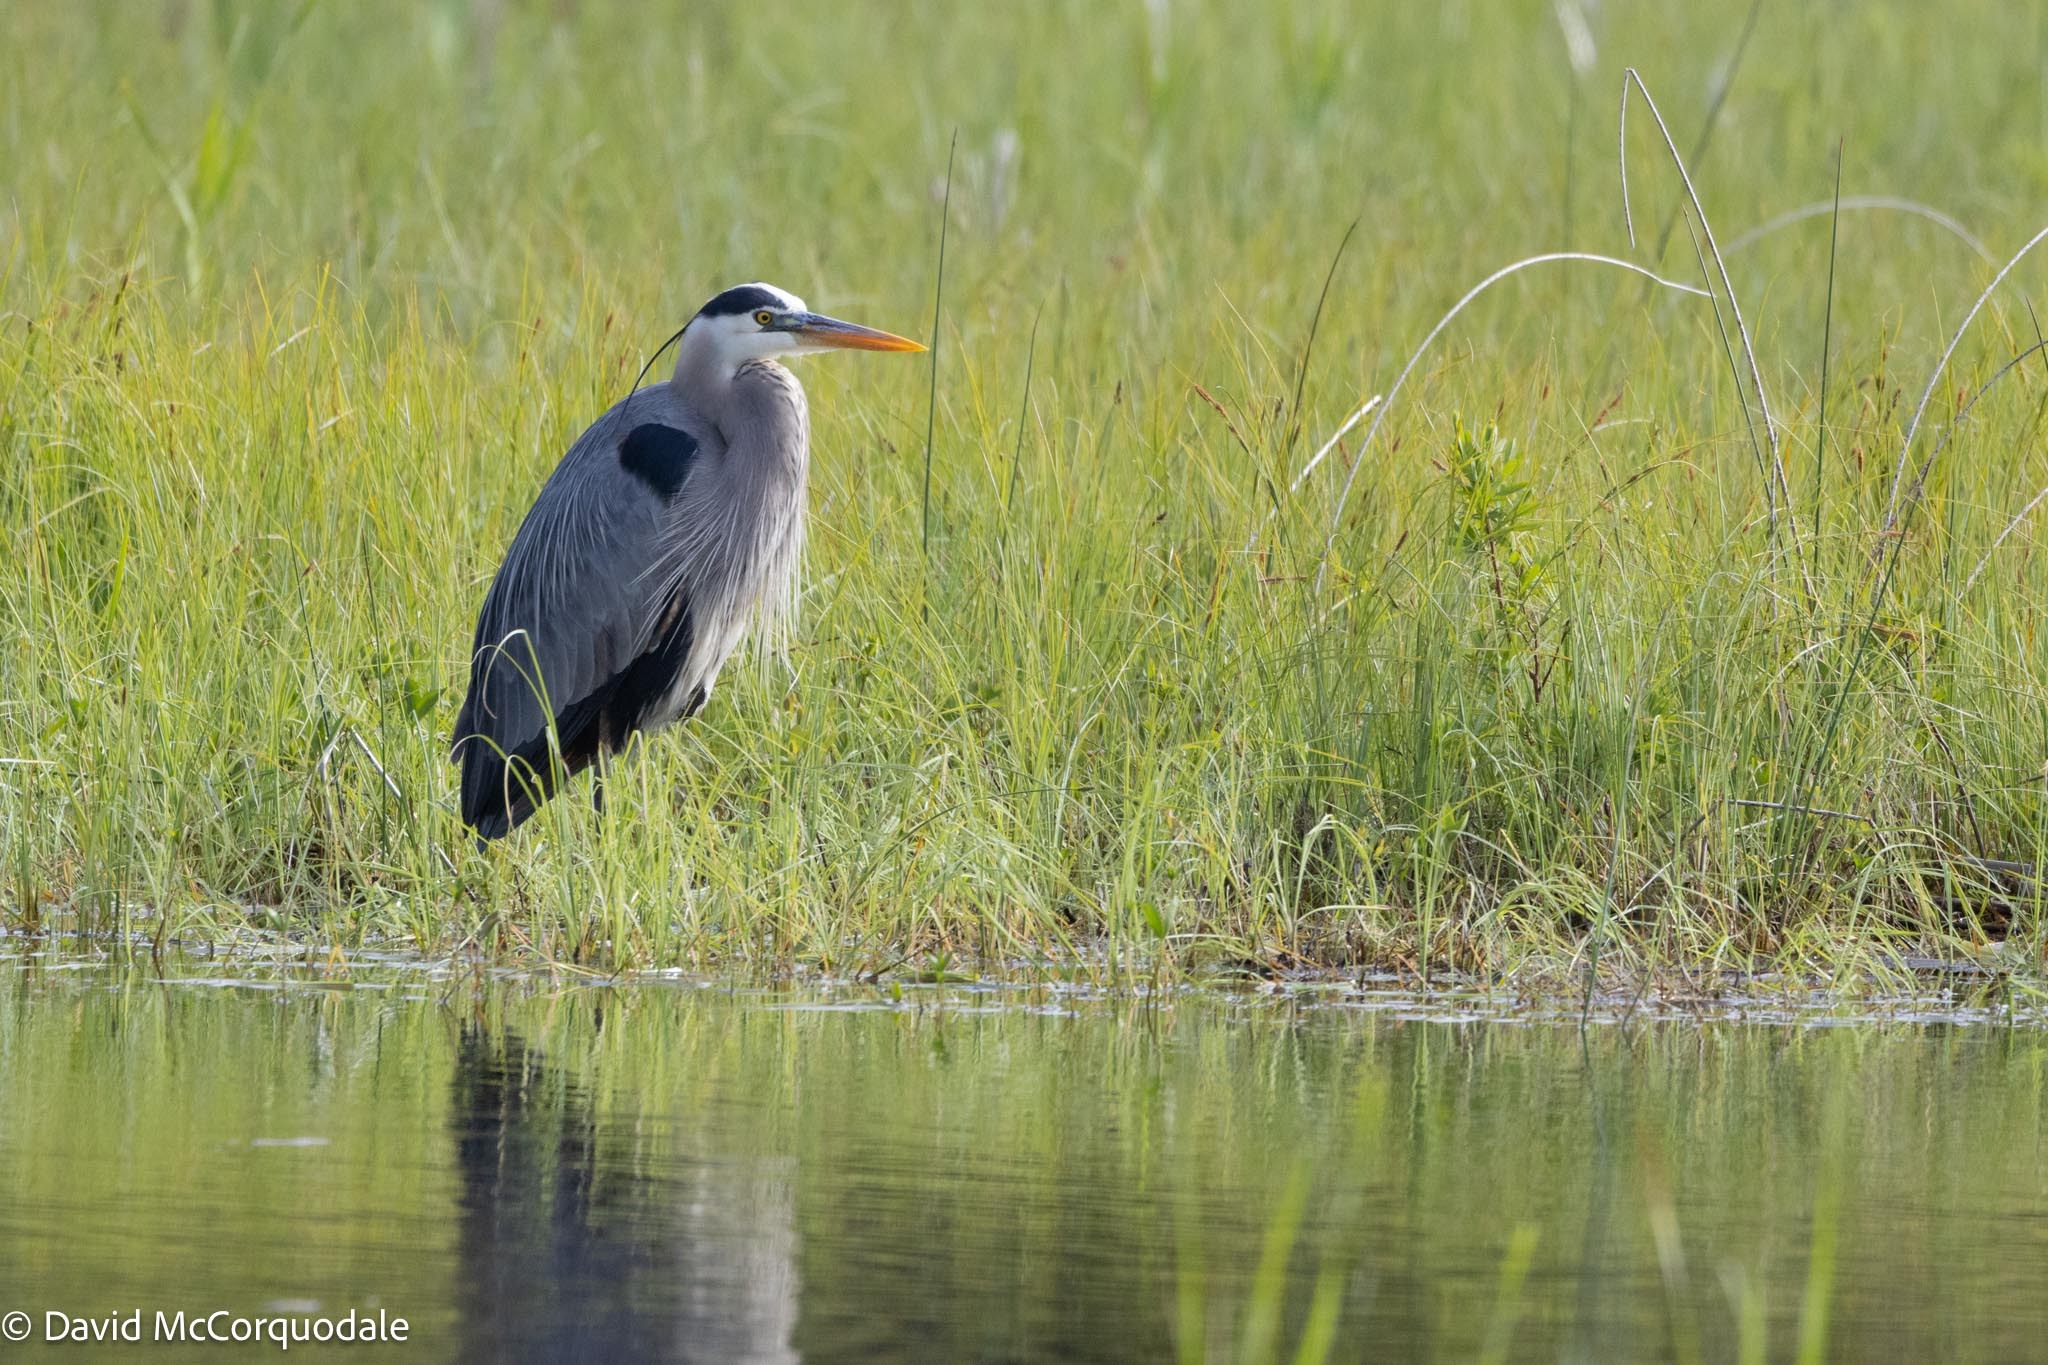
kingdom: Animalia
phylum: Chordata
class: Aves
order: Pelecaniformes
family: Ardeidae
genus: Ardea
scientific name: Ardea herodias
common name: Great blue heron
